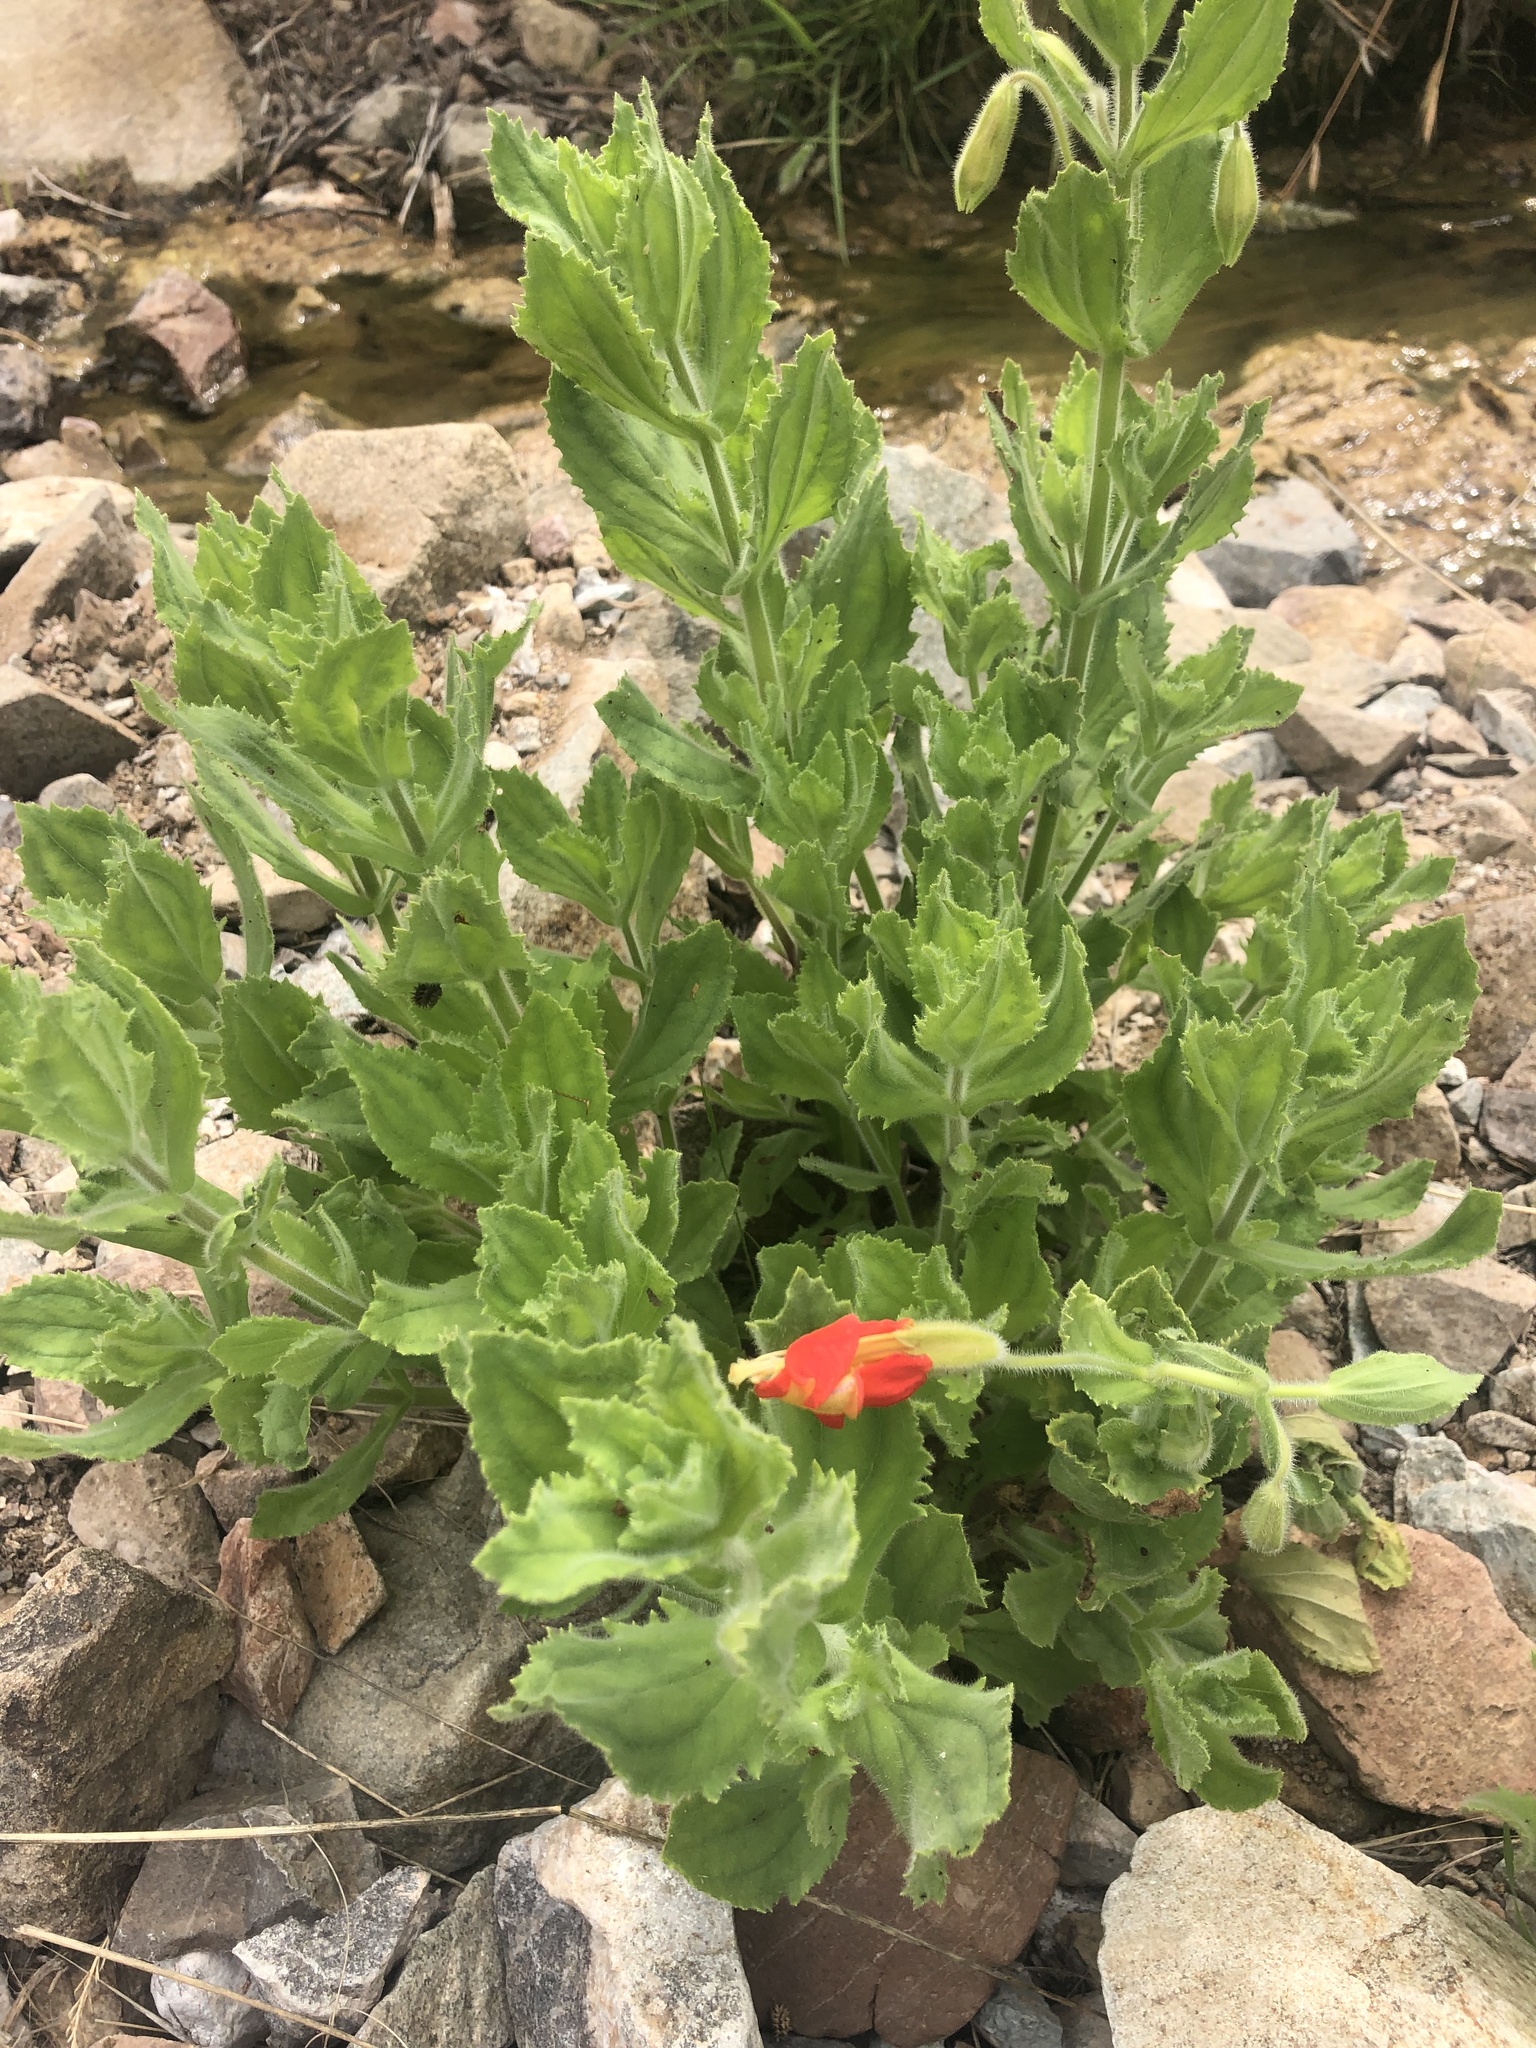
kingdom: Plantae
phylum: Tracheophyta
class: Magnoliopsida
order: Lamiales
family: Phrymaceae
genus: Erythranthe
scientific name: Erythranthe cardinalis
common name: Scarlet monkey-flower
